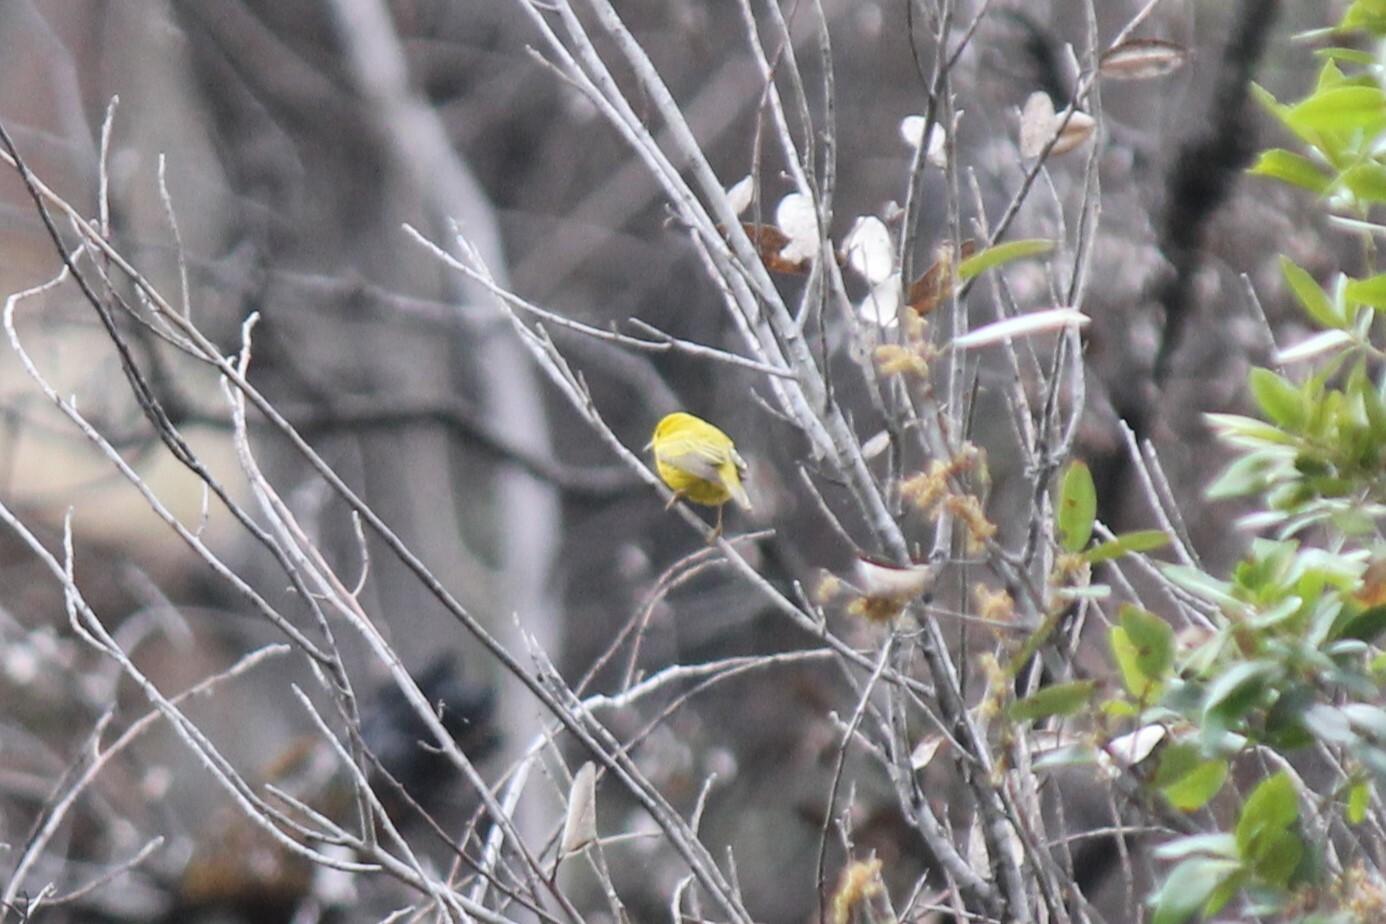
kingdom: Animalia
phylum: Chordata
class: Aves
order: Passeriformes
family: Parulidae
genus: Setophaga
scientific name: Setophaga petechia
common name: Yellow warbler
